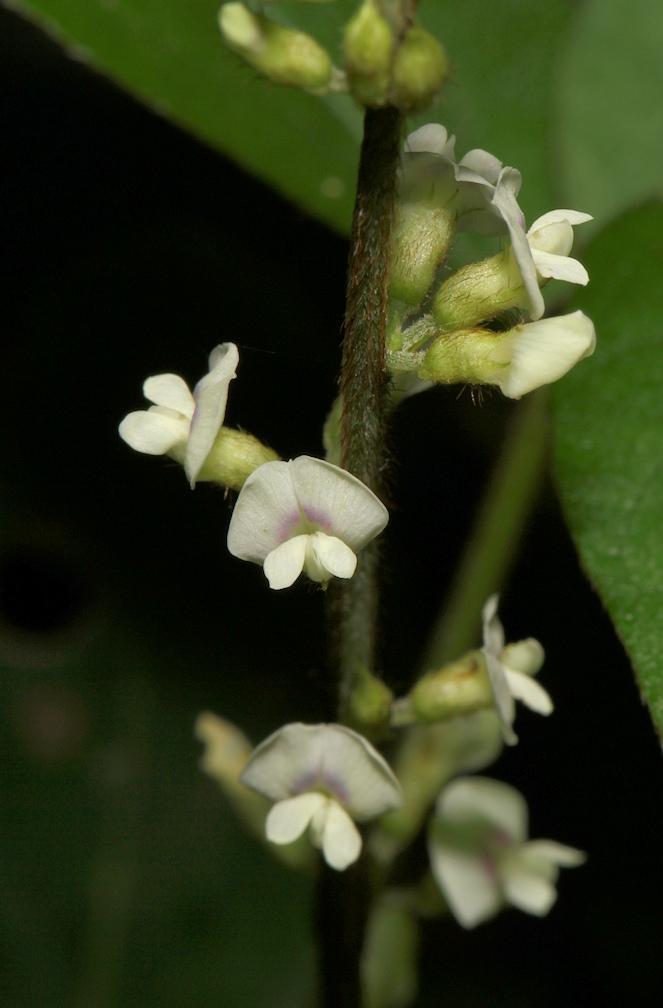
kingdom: Plantae
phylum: Tracheophyta
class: Magnoliopsida
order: Fabales
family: Fabaceae
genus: Neonotonia
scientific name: Neonotonia wightii
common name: Perennial soybean
